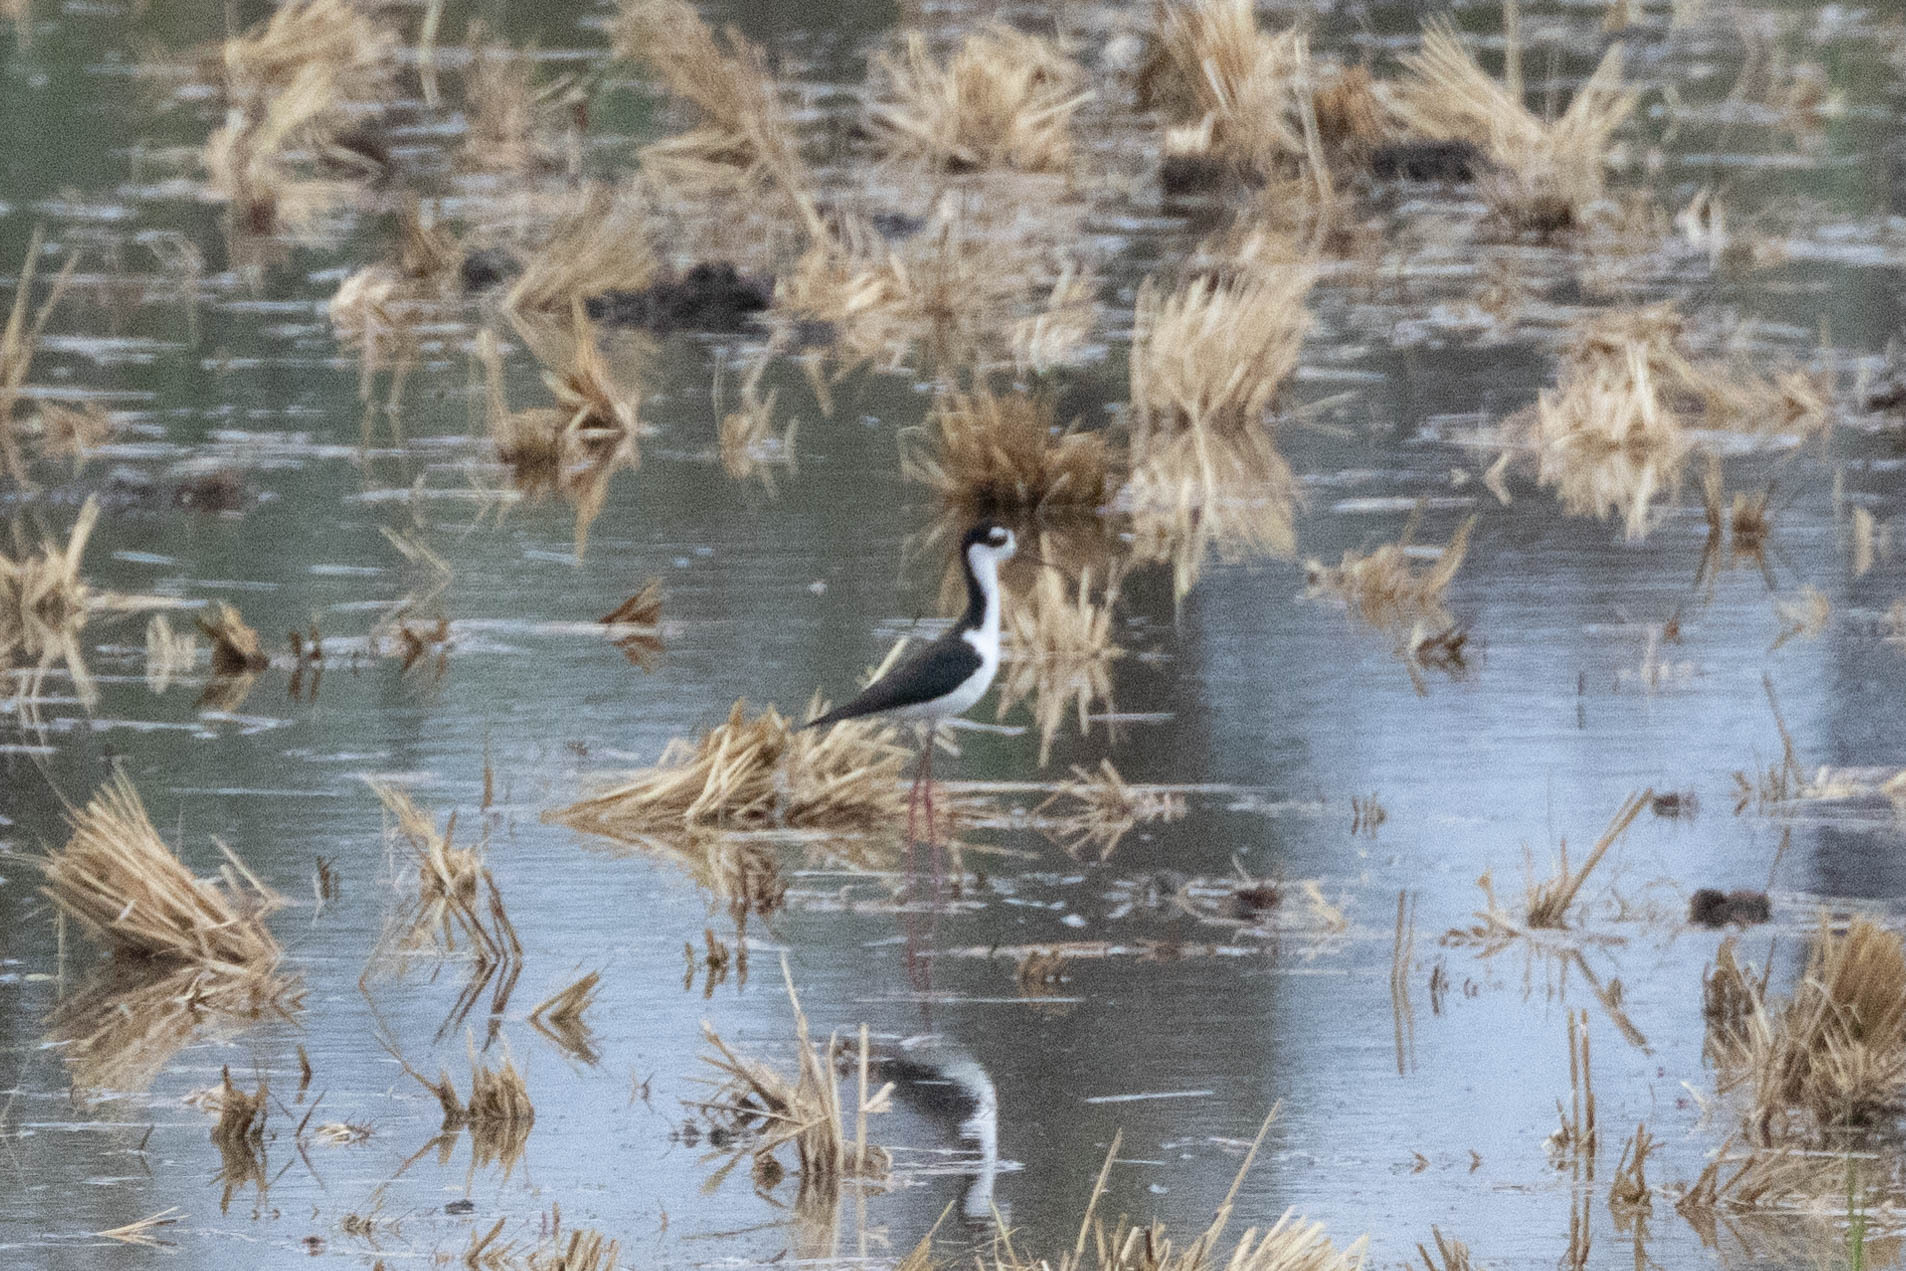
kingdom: Animalia
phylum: Chordata
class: Aves
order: Charadriiformes
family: Recurvirostridae
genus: Himantopus
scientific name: Himantopus mexicanus
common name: Black-necked stilt
